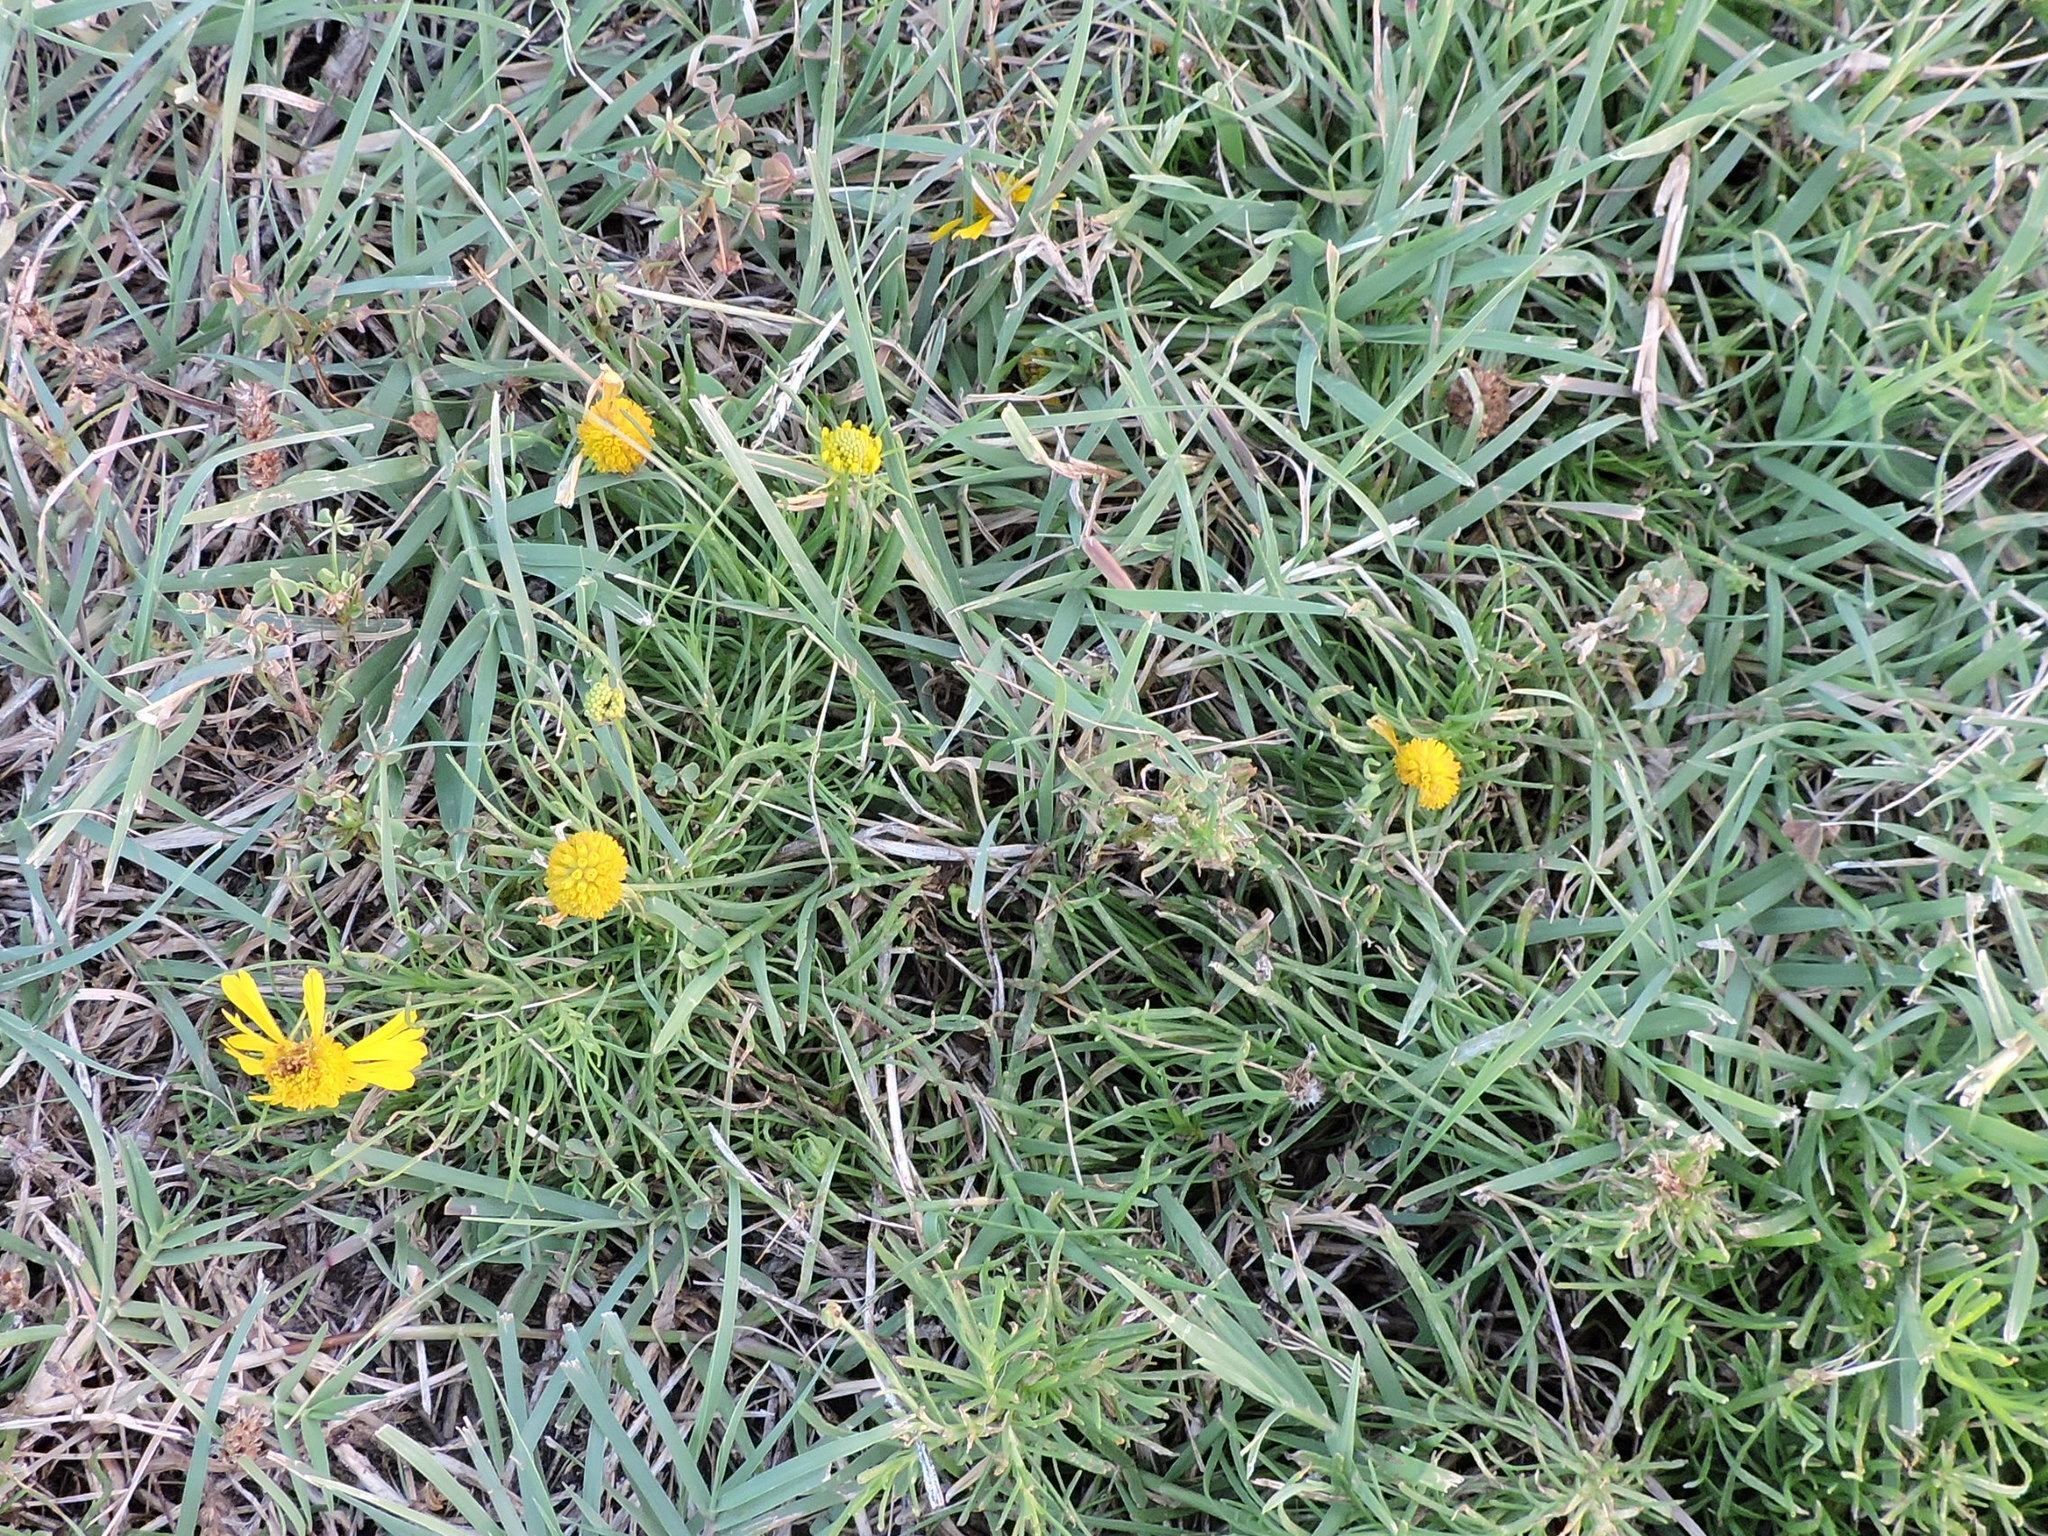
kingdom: Plantae
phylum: Tracheophyta
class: Magnoliopsida
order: Asterales
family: Asteraceae
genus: Helenium
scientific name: Helenium amarum
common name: Bitter sneezeweed
